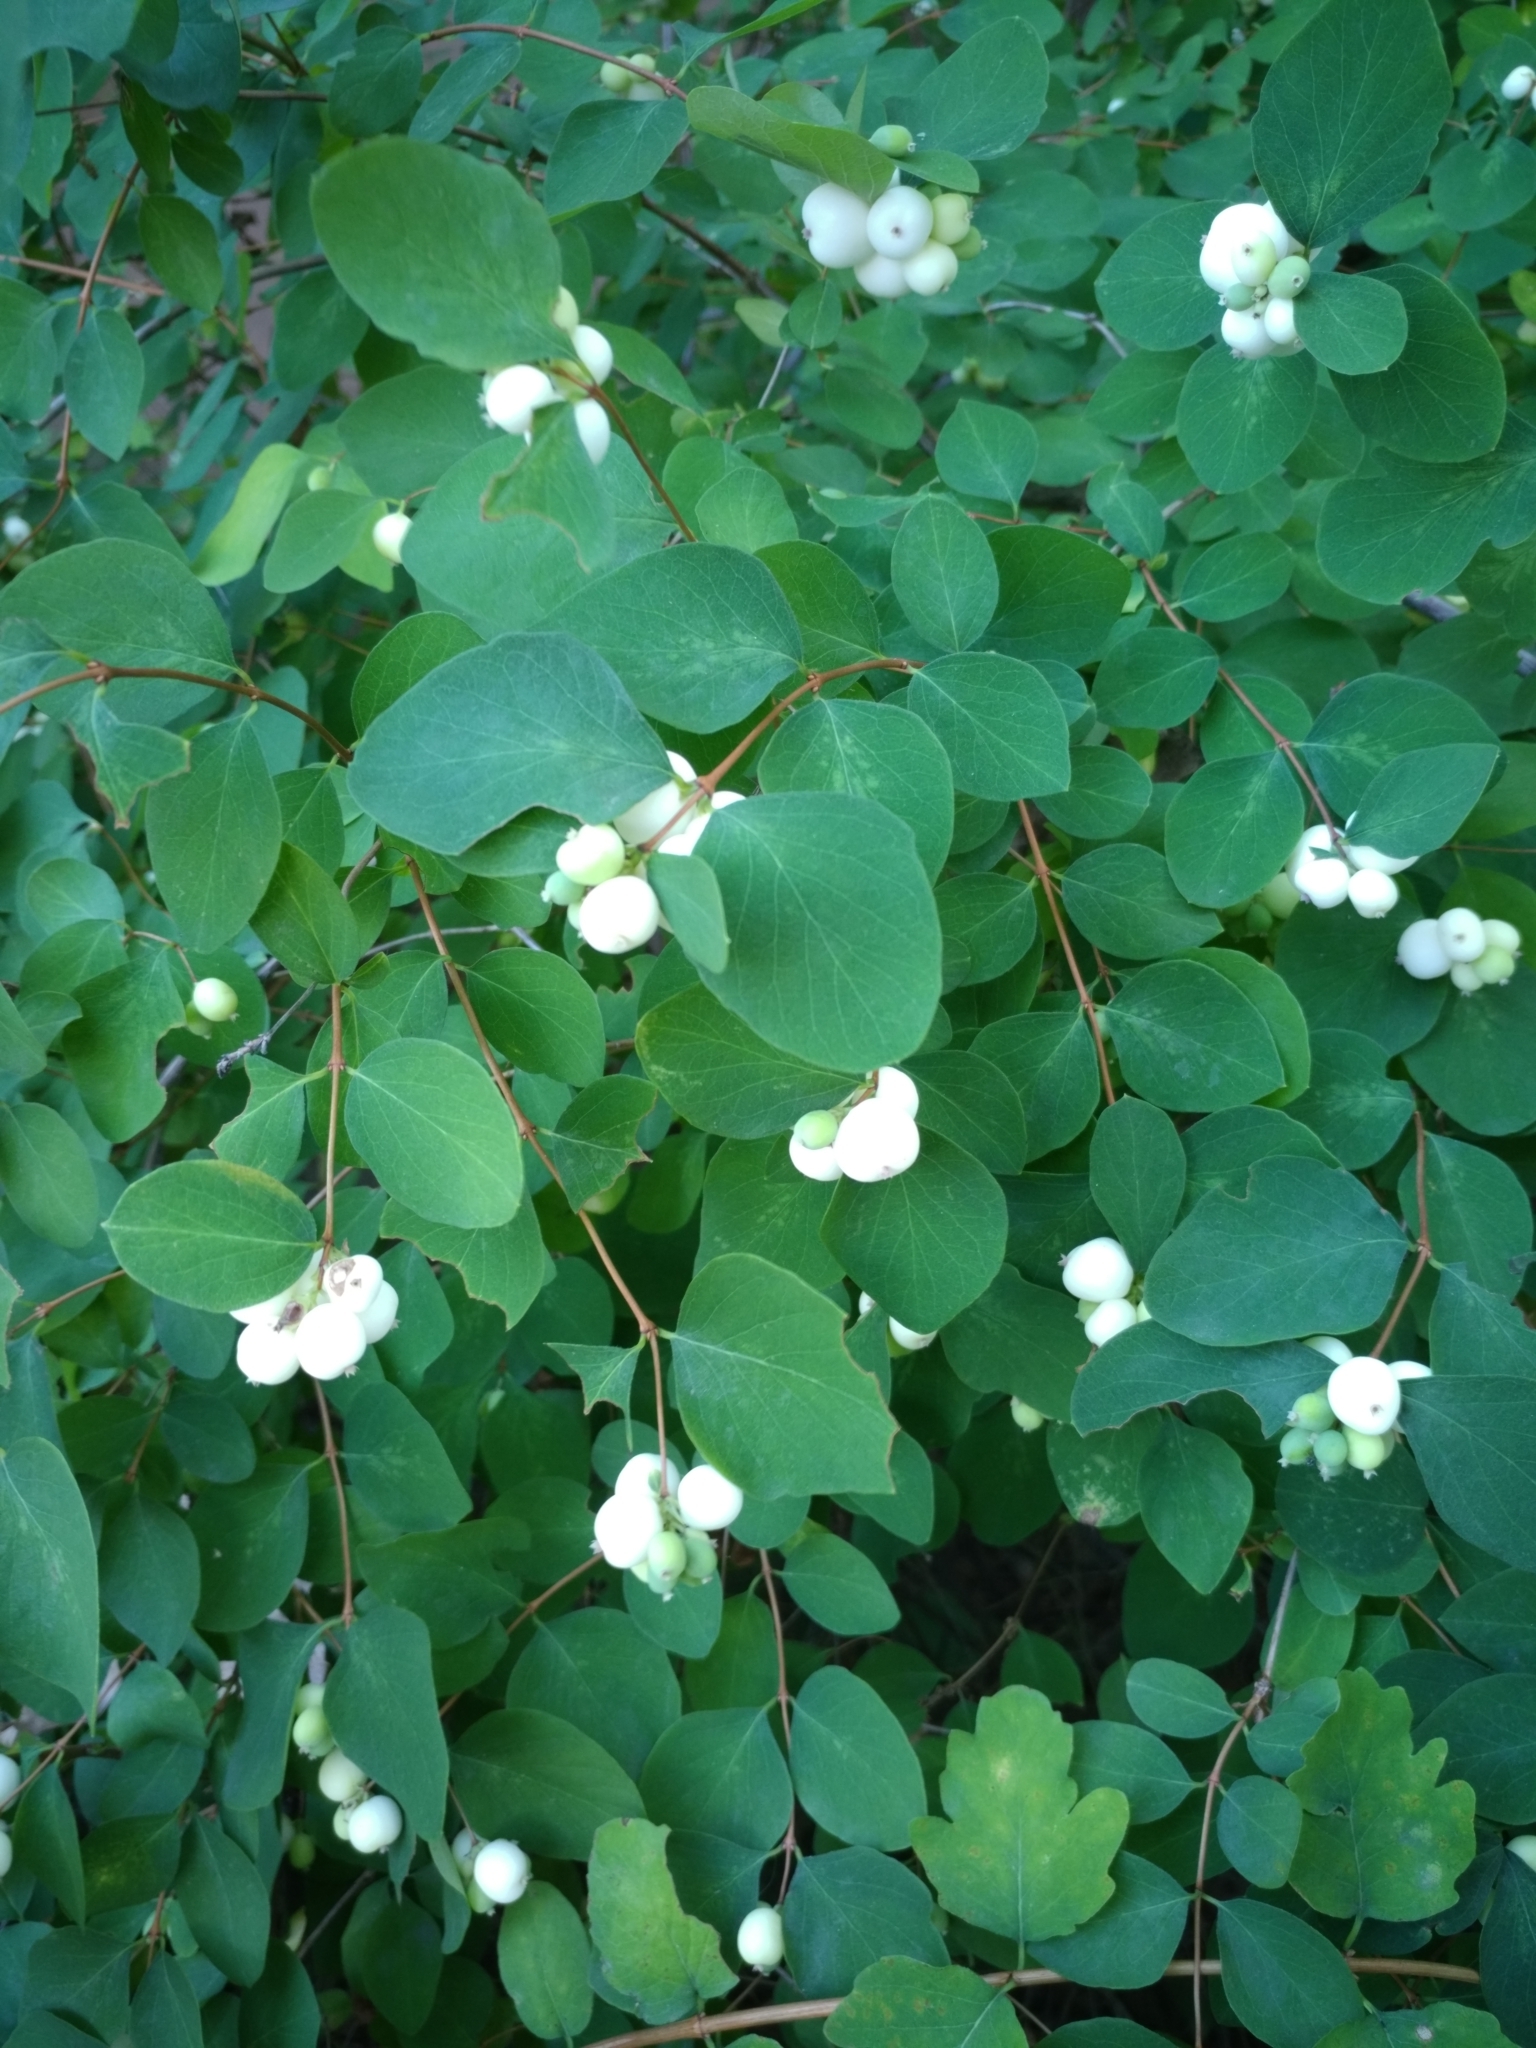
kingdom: Plantae
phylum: Tracheophyta
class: Magnoliopsida
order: Dipsacales
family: Caprifoliaceae
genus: Symphoricarpos
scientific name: Symphoricarpos albus
